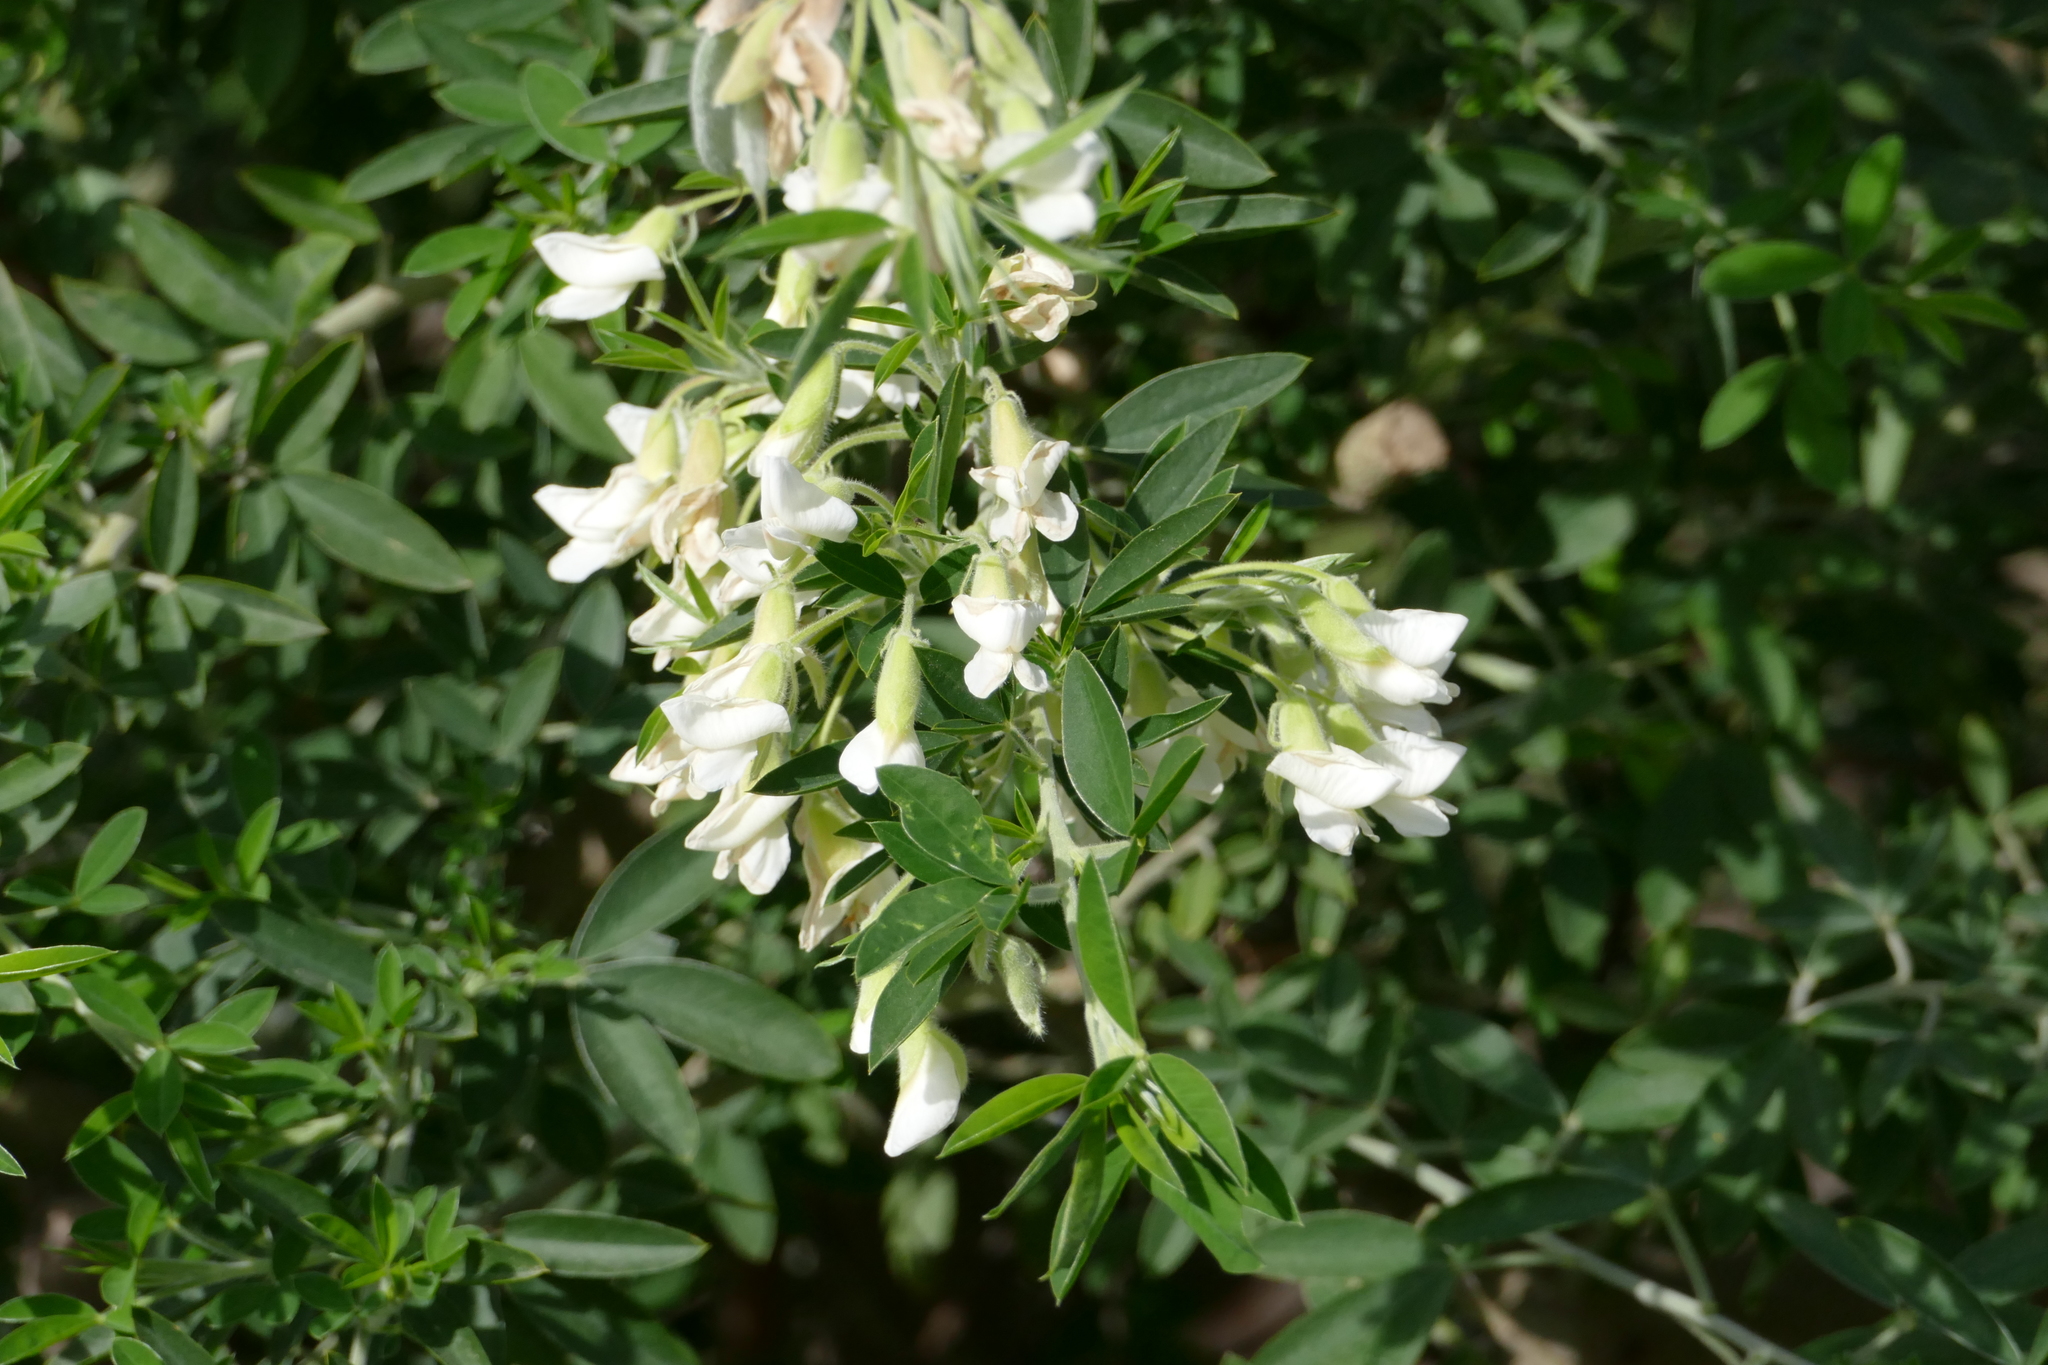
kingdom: Plantae
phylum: Tracheophyta
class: Magnoliopsida
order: Fabales
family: Fabaceae
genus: Chamaecytisus
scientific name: Chamaecytisus prolifer
